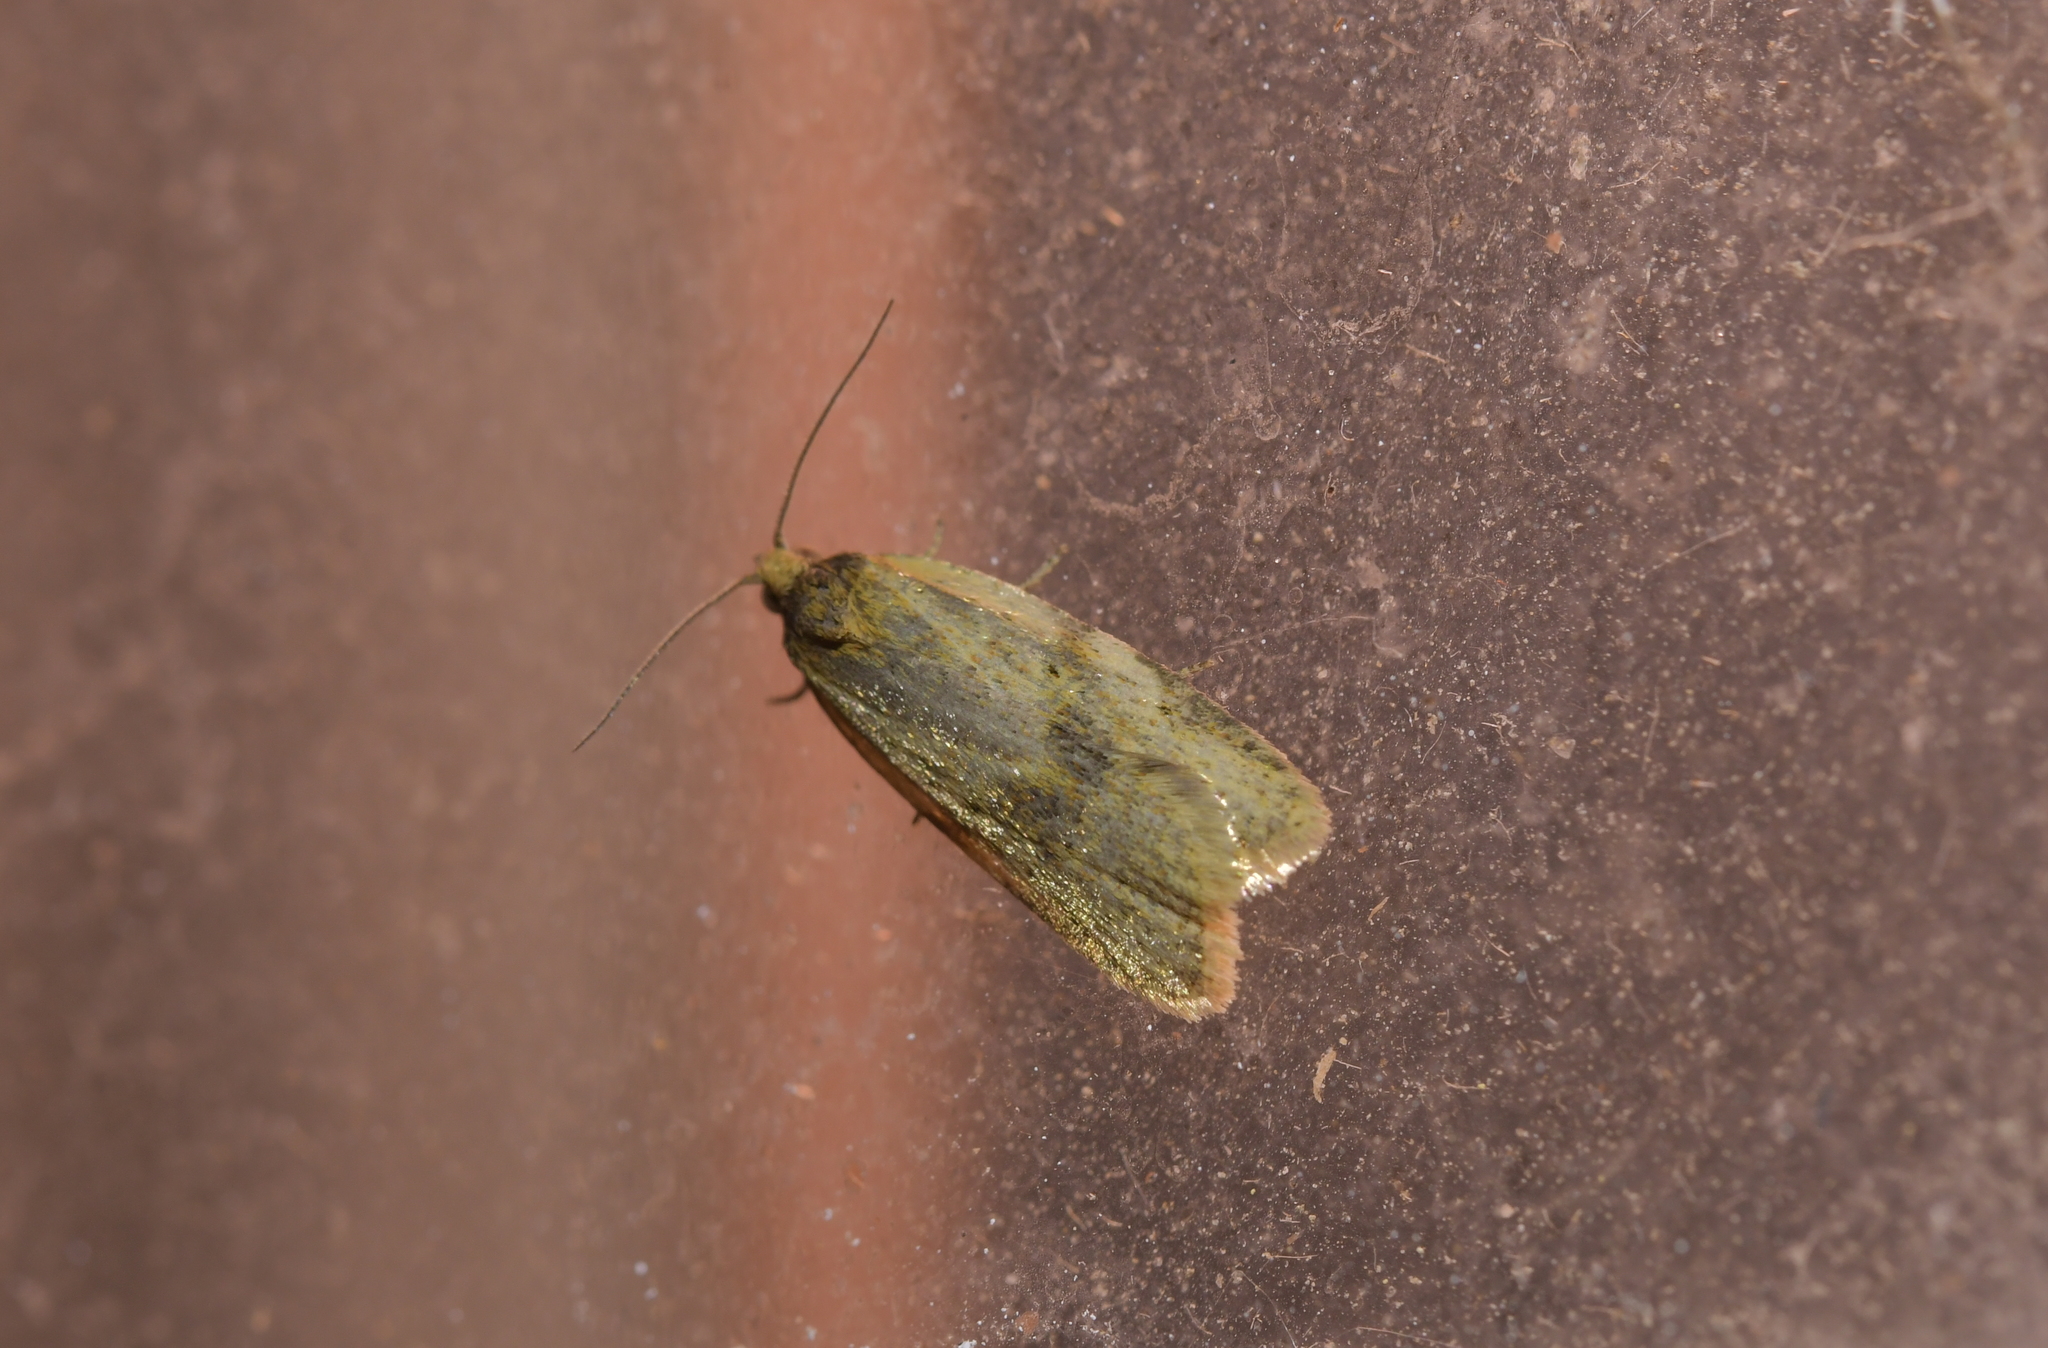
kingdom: Animalia
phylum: Arthropoda
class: Insecta
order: Lepidoptera
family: Tortricidae
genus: Clepsis
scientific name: Clepsis
